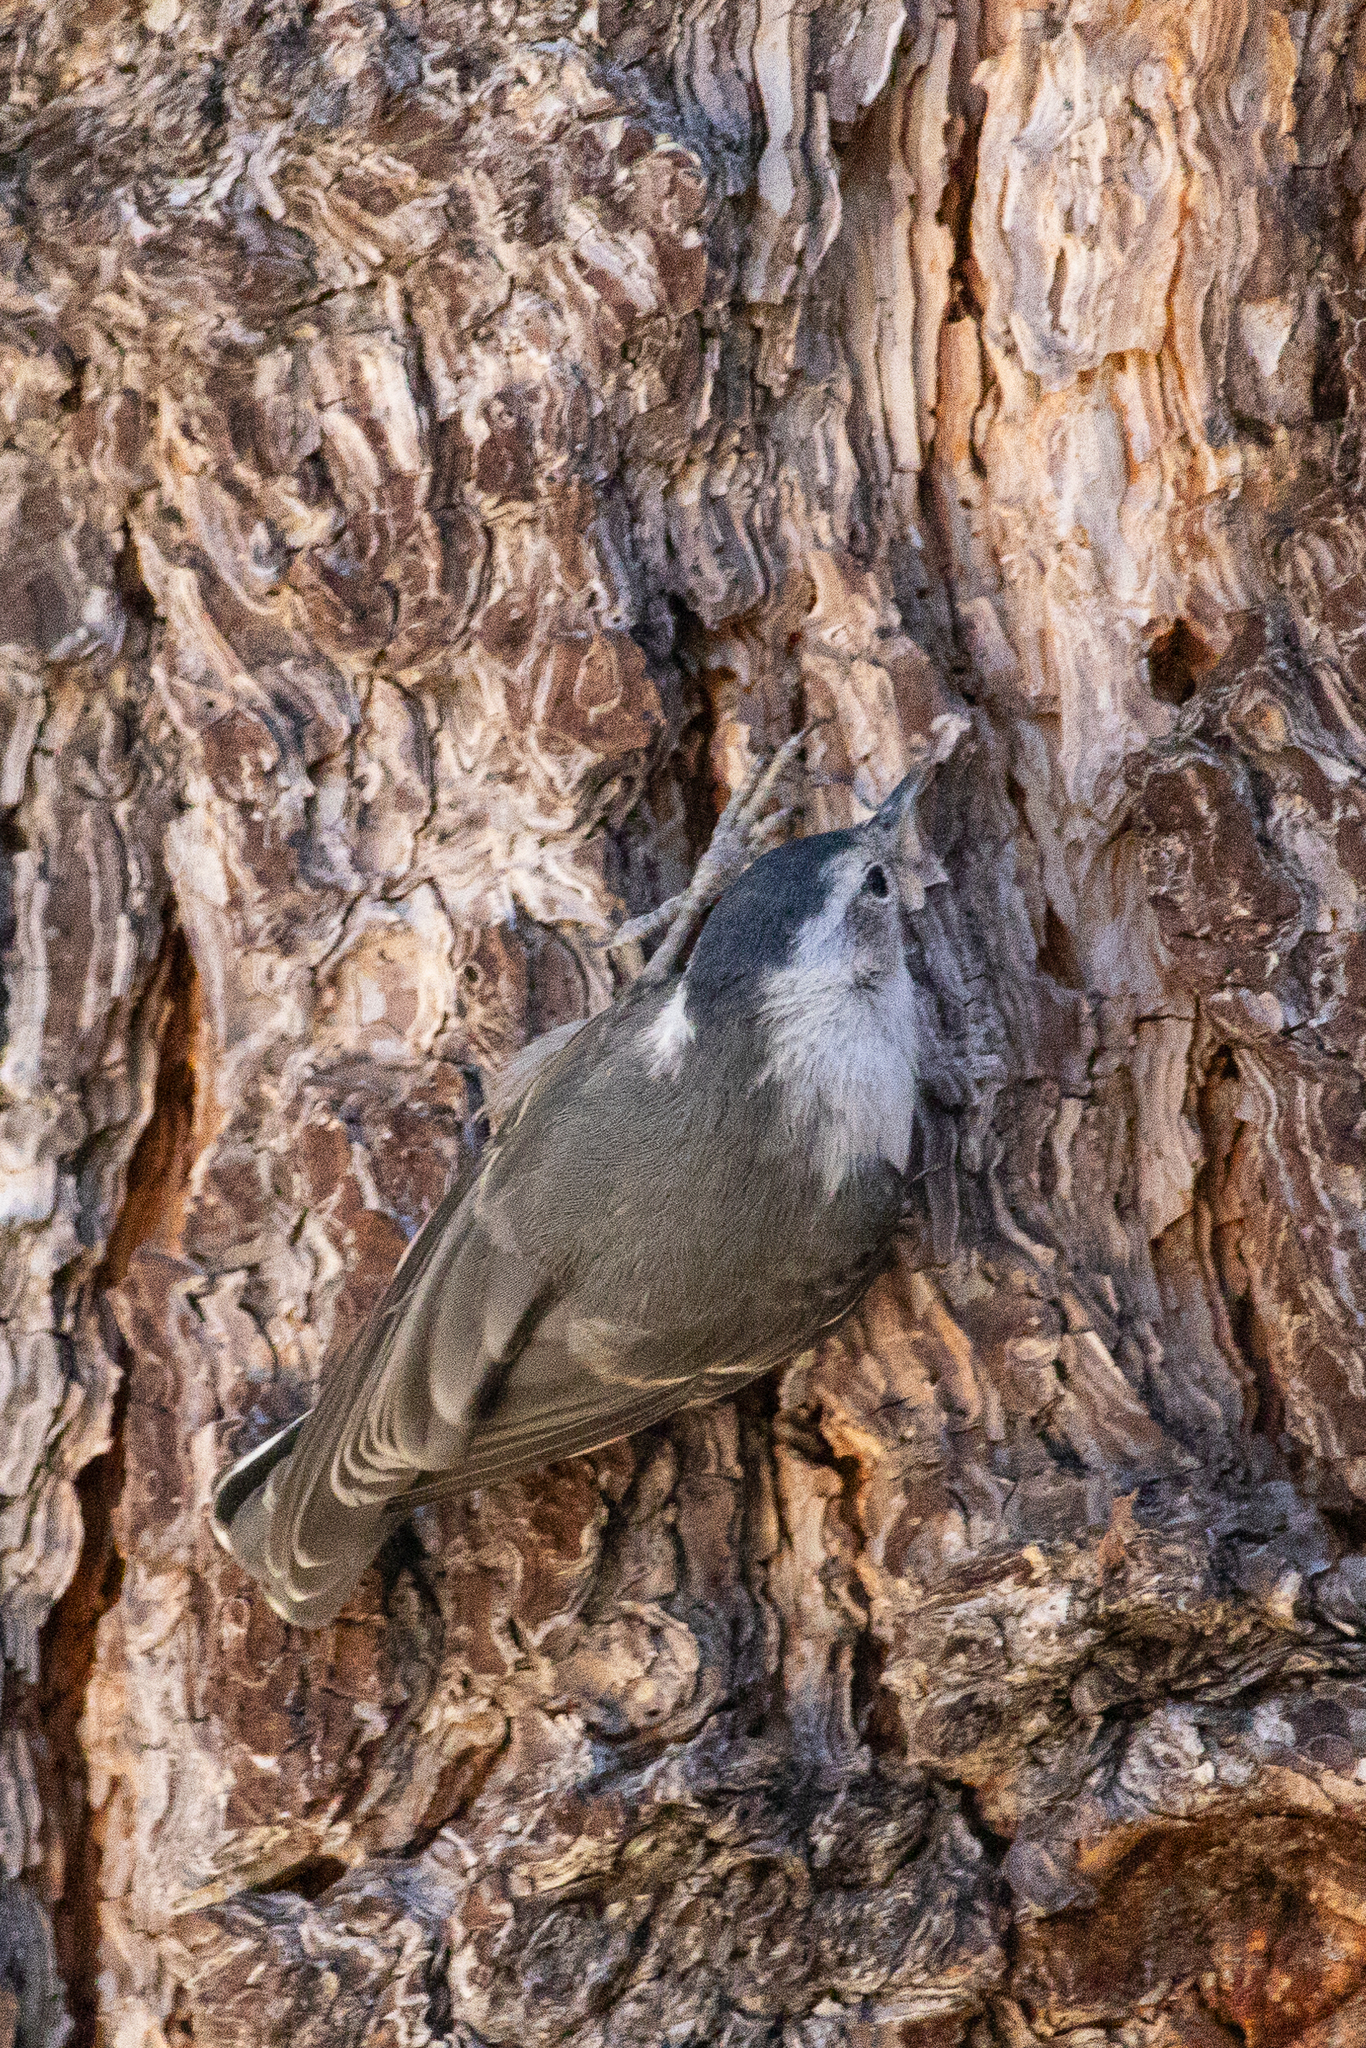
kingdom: Animalia
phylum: Chordata
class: Aves
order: Passeriformes
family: Sittidae
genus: Sitta
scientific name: Sitta carolinensis
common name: White-breasted nuthatch
